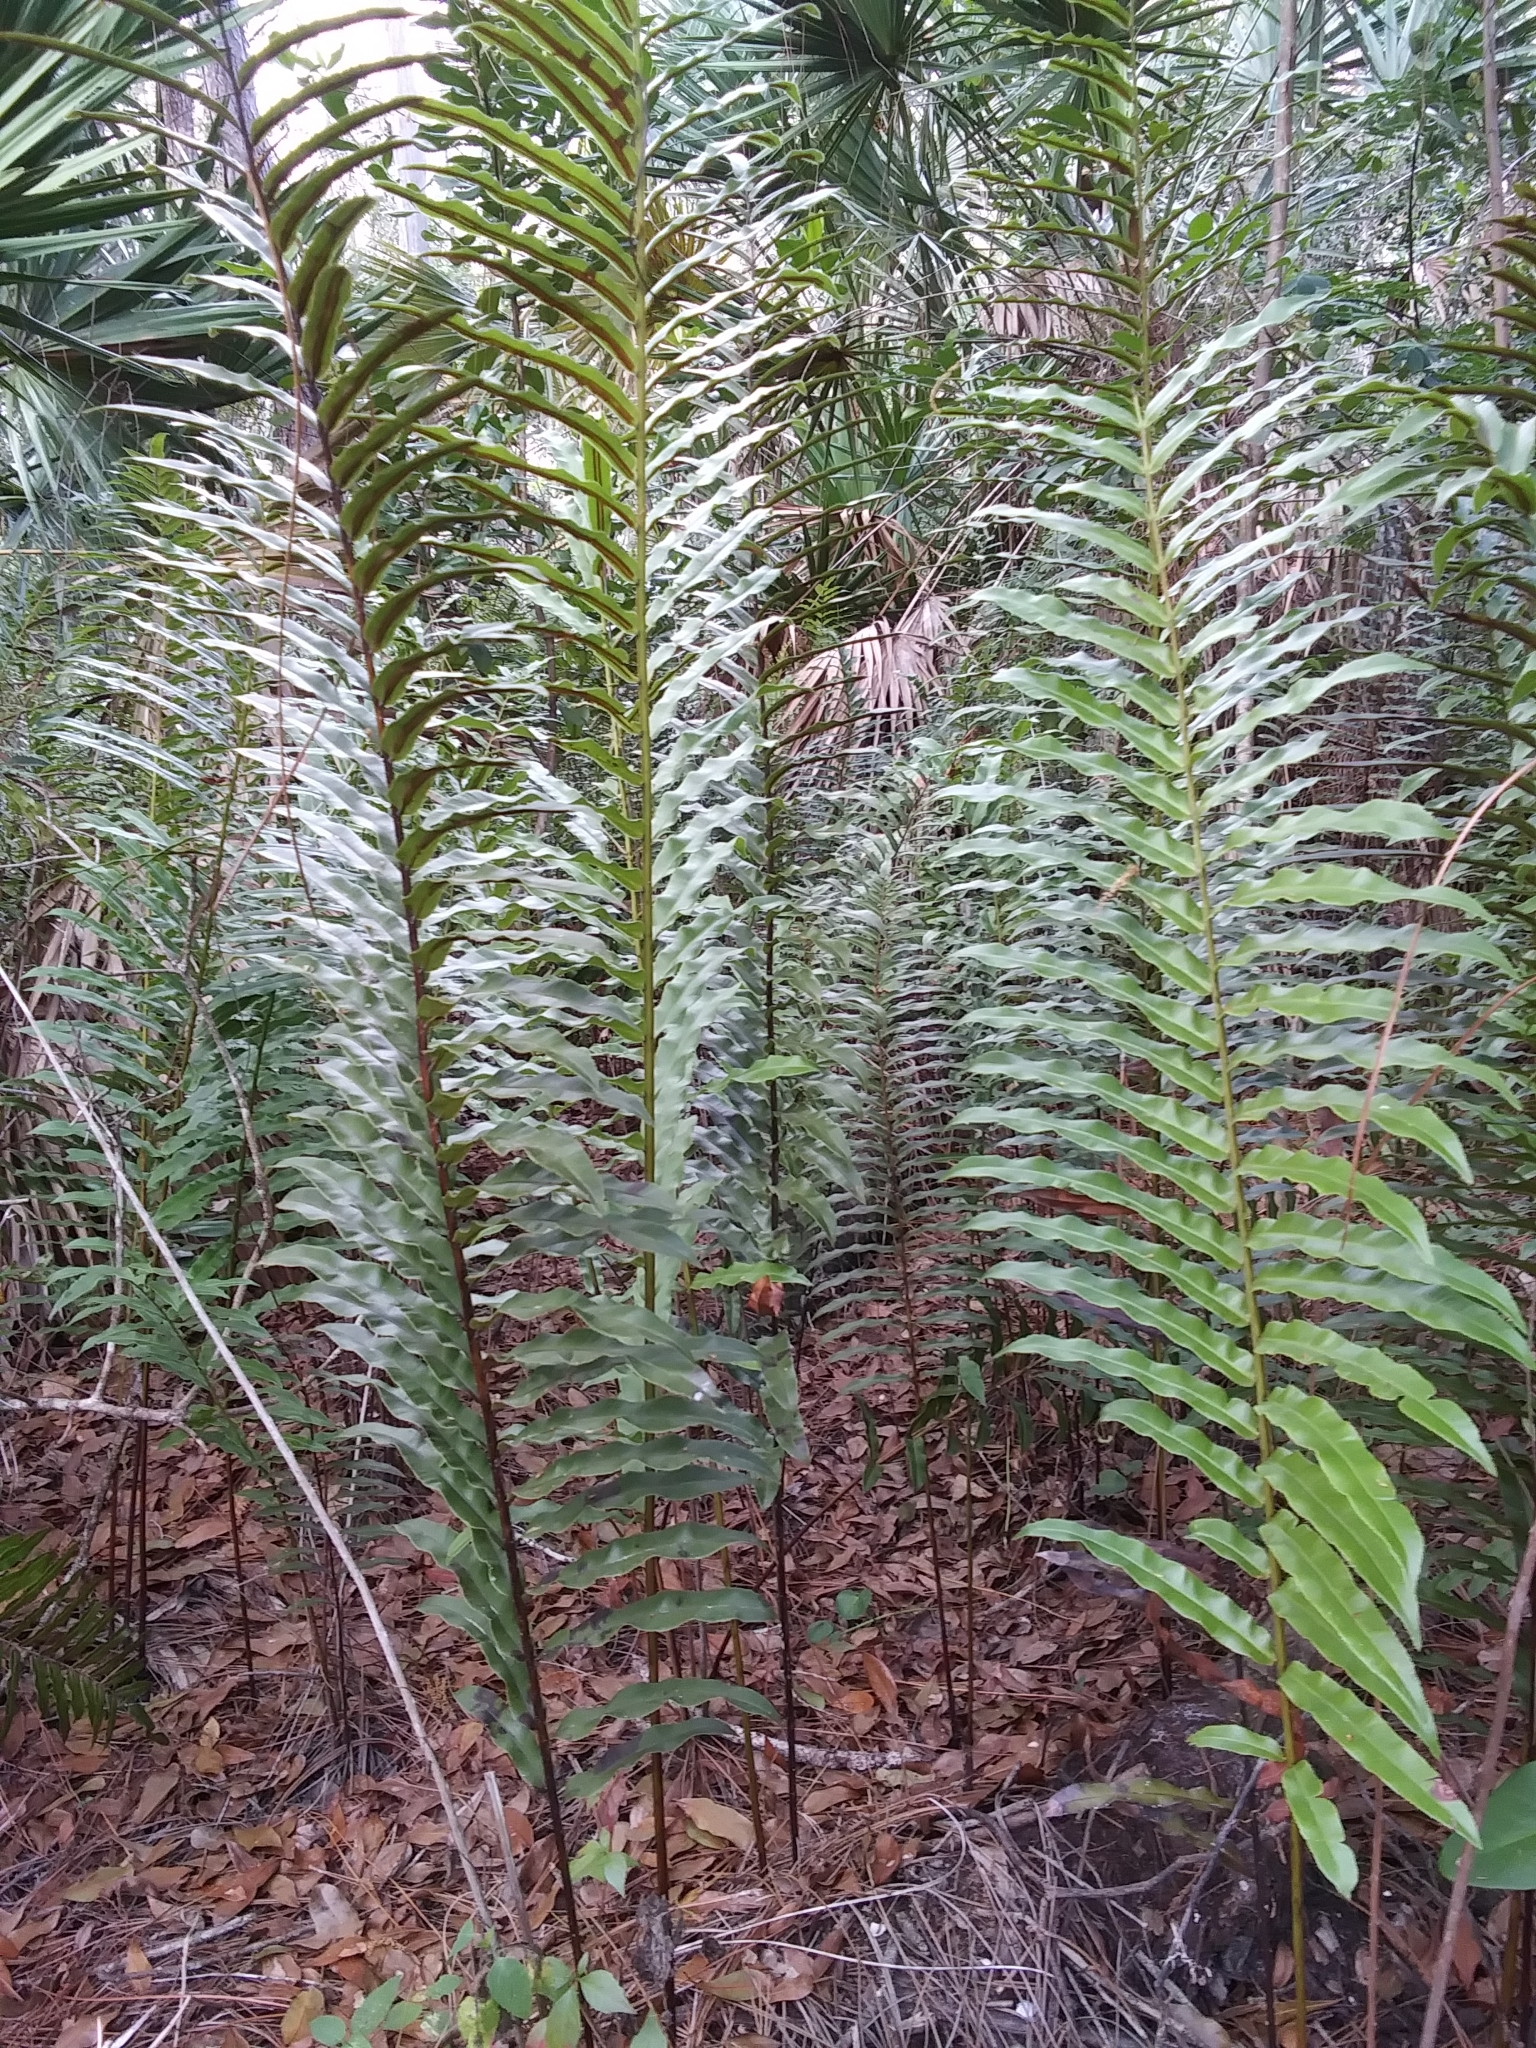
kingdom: Plantae
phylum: Tracheophyta
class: Polypodiopsida
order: Polypodiales
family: Blechnaceae
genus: Telmatoblechnum
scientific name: Telmatoblechnum serrulatum
